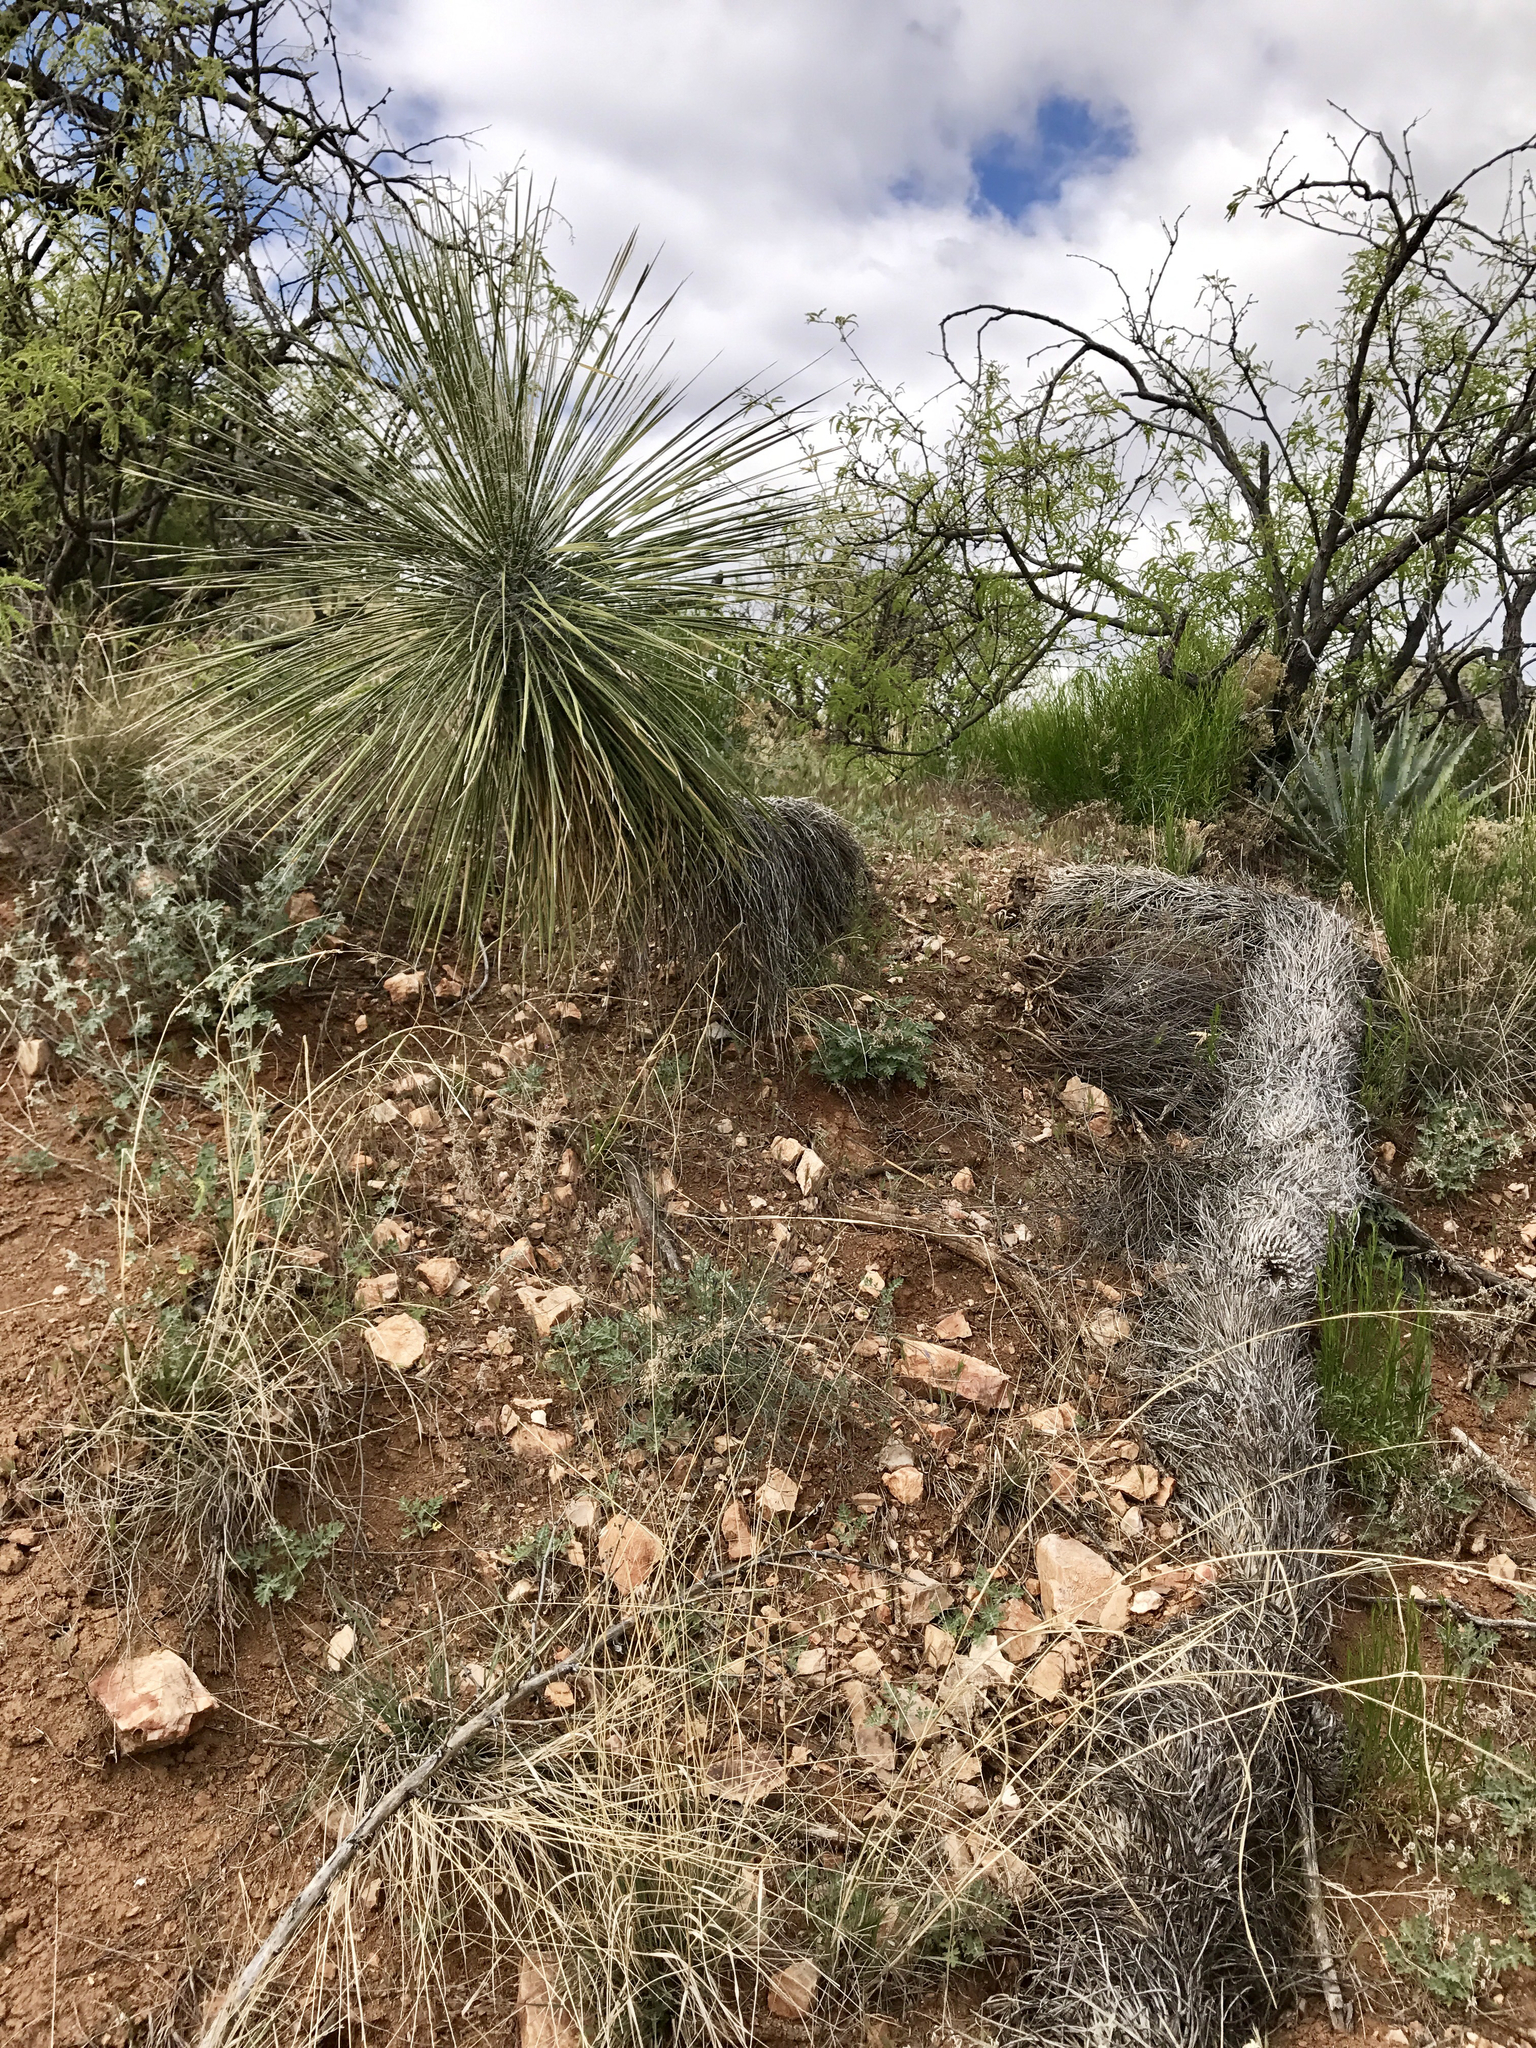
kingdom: Plantae
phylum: Tracheophyta
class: Liliopsida
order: Asparagales
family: Asparagaceae
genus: Yucca
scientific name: Yucca elata
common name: Palmella
